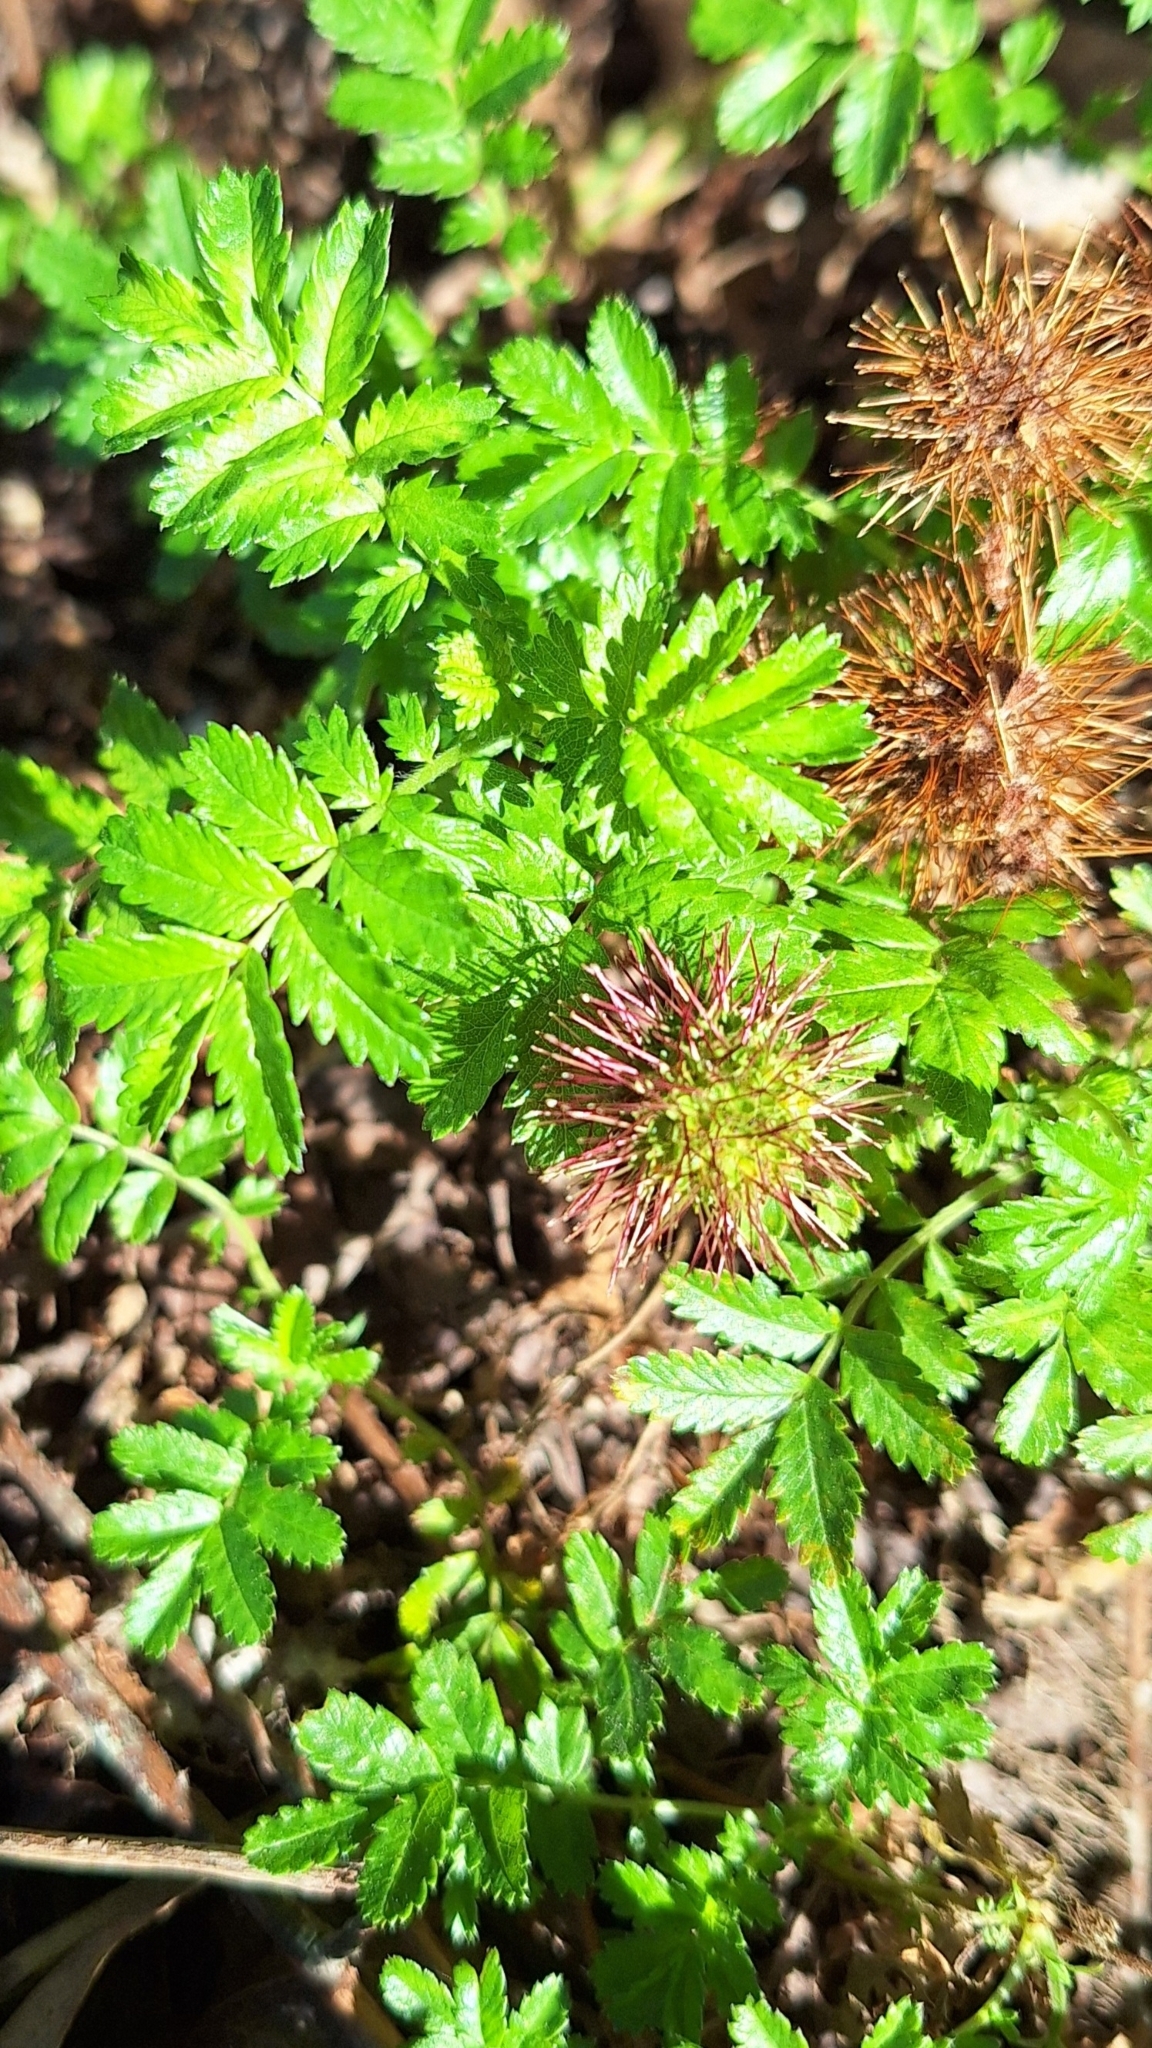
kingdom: Plantae
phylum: Tracheophyta
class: Magnoliopsida
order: Rosales
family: Rosaceae
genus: Acaena
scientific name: Acaena novae-zelandiae
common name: Pirri-pirri-bur
